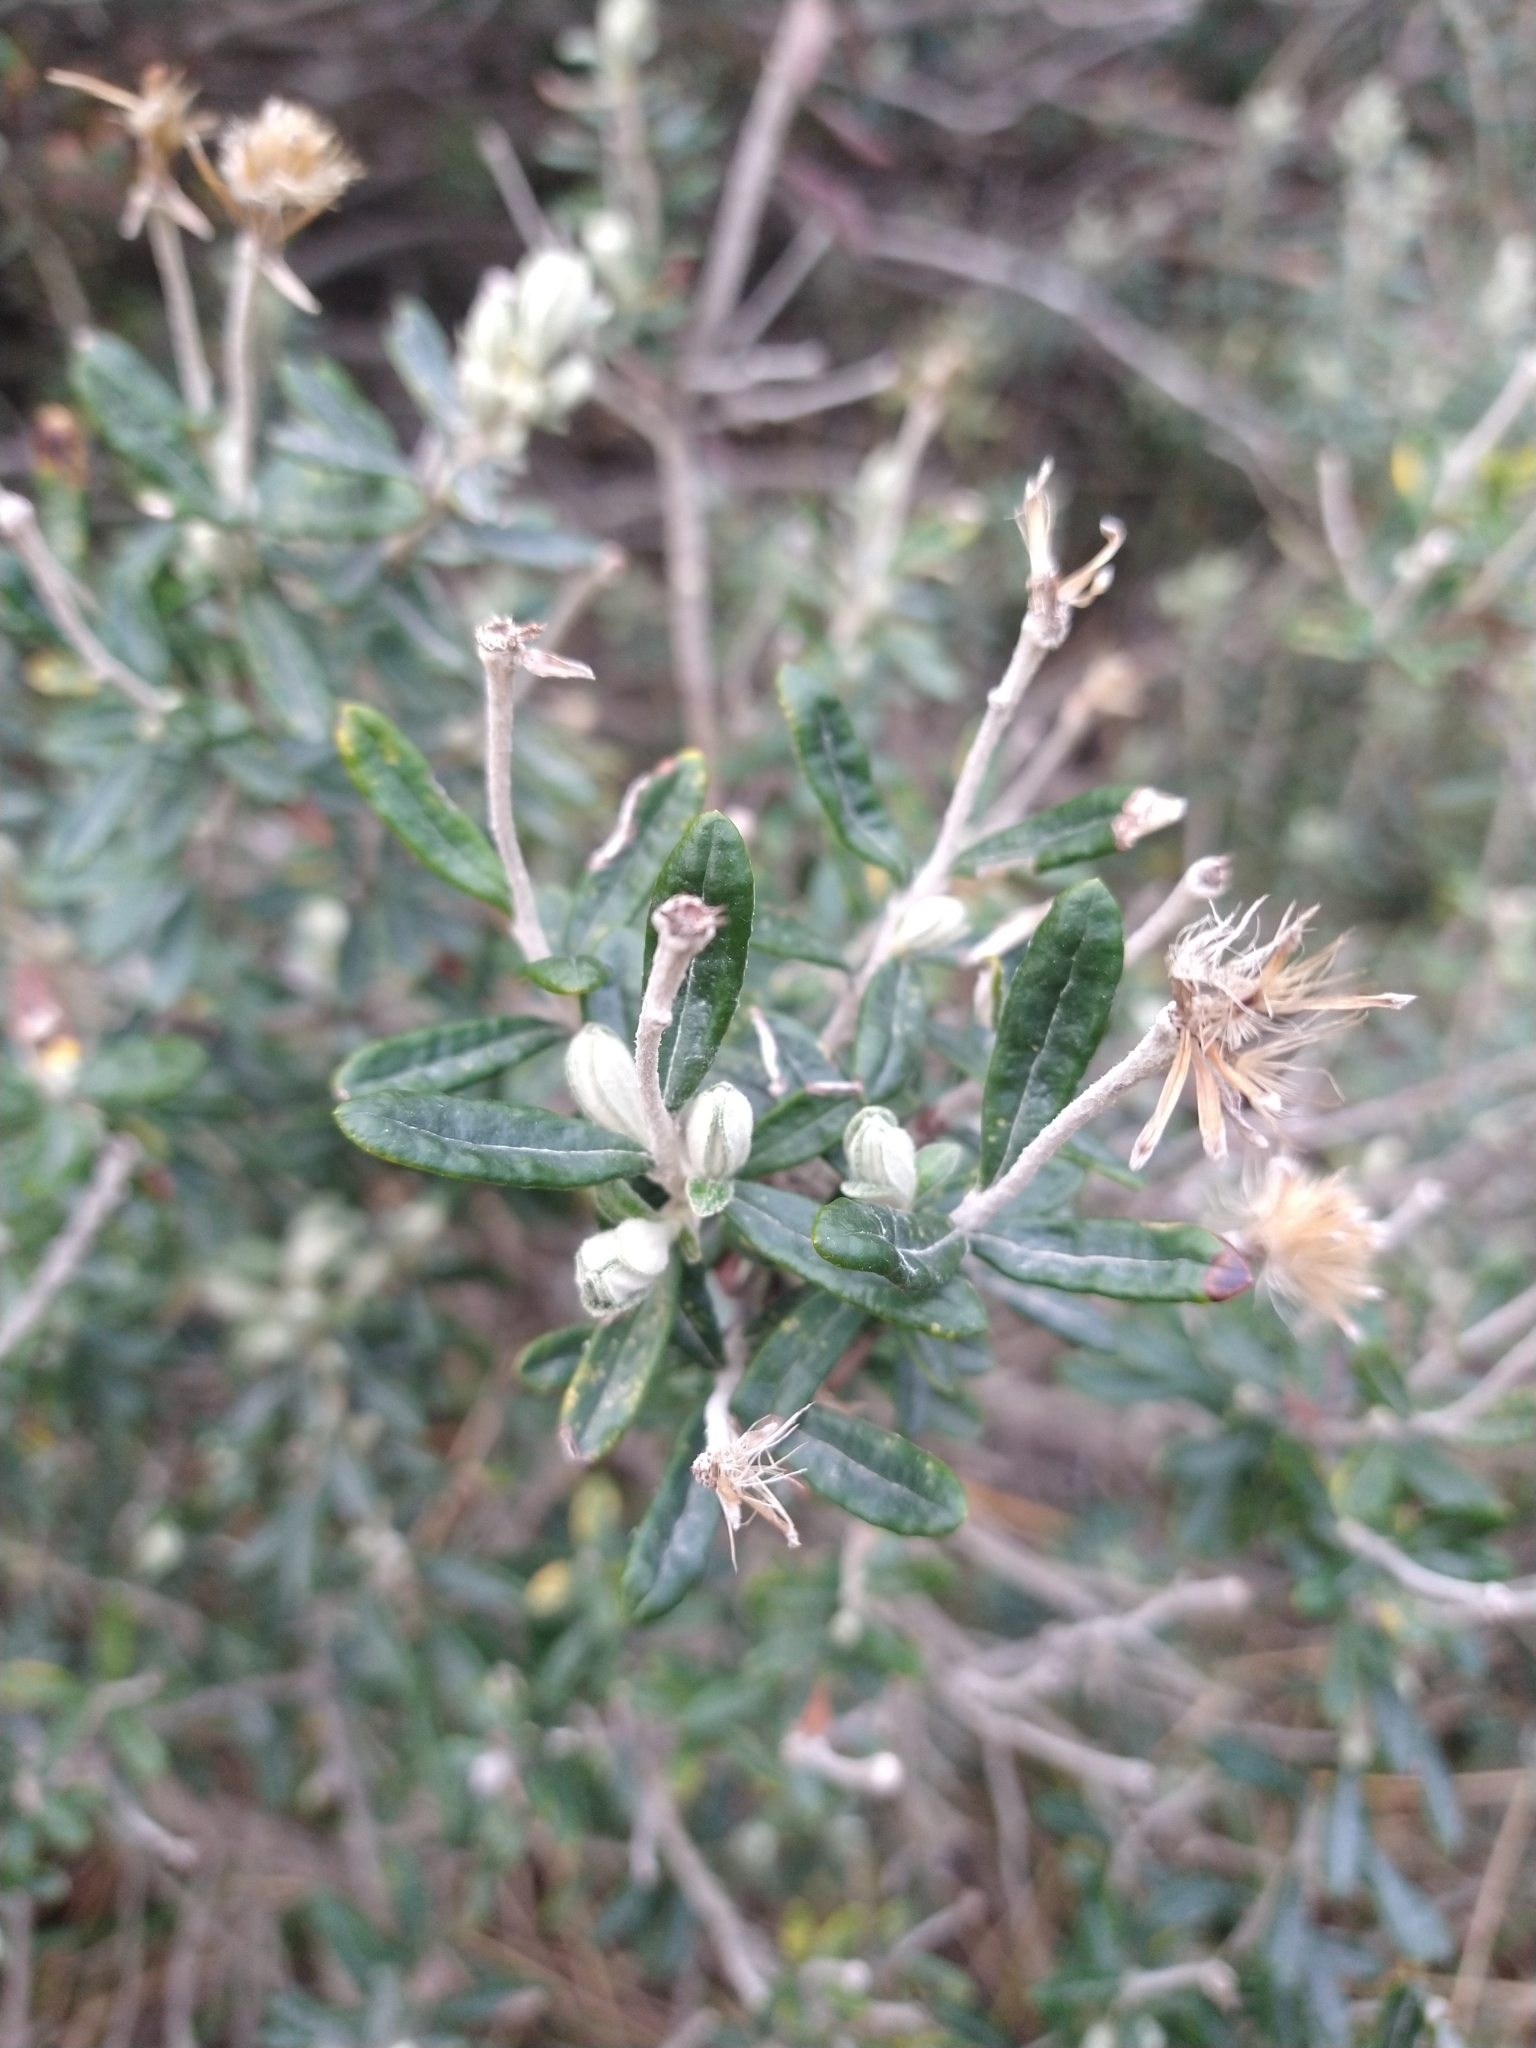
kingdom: Plantae
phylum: Tracheophyta
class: Magnoliopsida
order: Asterales
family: Asteraceae
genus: Chiliotrichum
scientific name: Chiliotrichum diffusum
